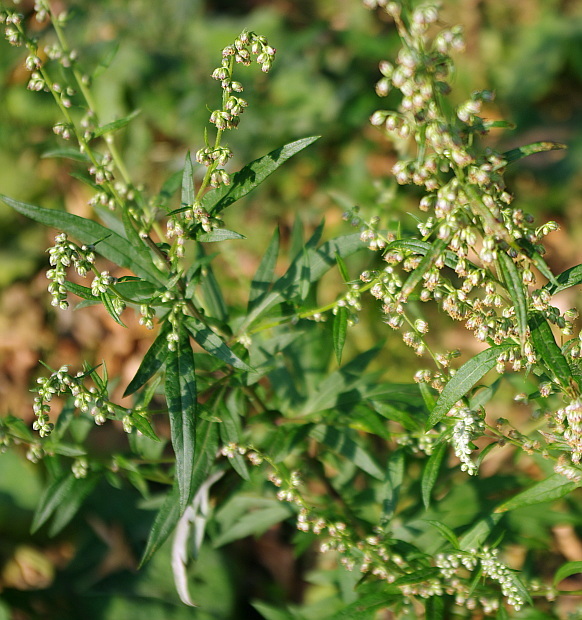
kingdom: Plantae
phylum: Tracheophyta
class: Magnoliopsida
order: Asterales
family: Asteraceae
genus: Artemisia
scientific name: Artemisia vulgaris
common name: Mugwort
